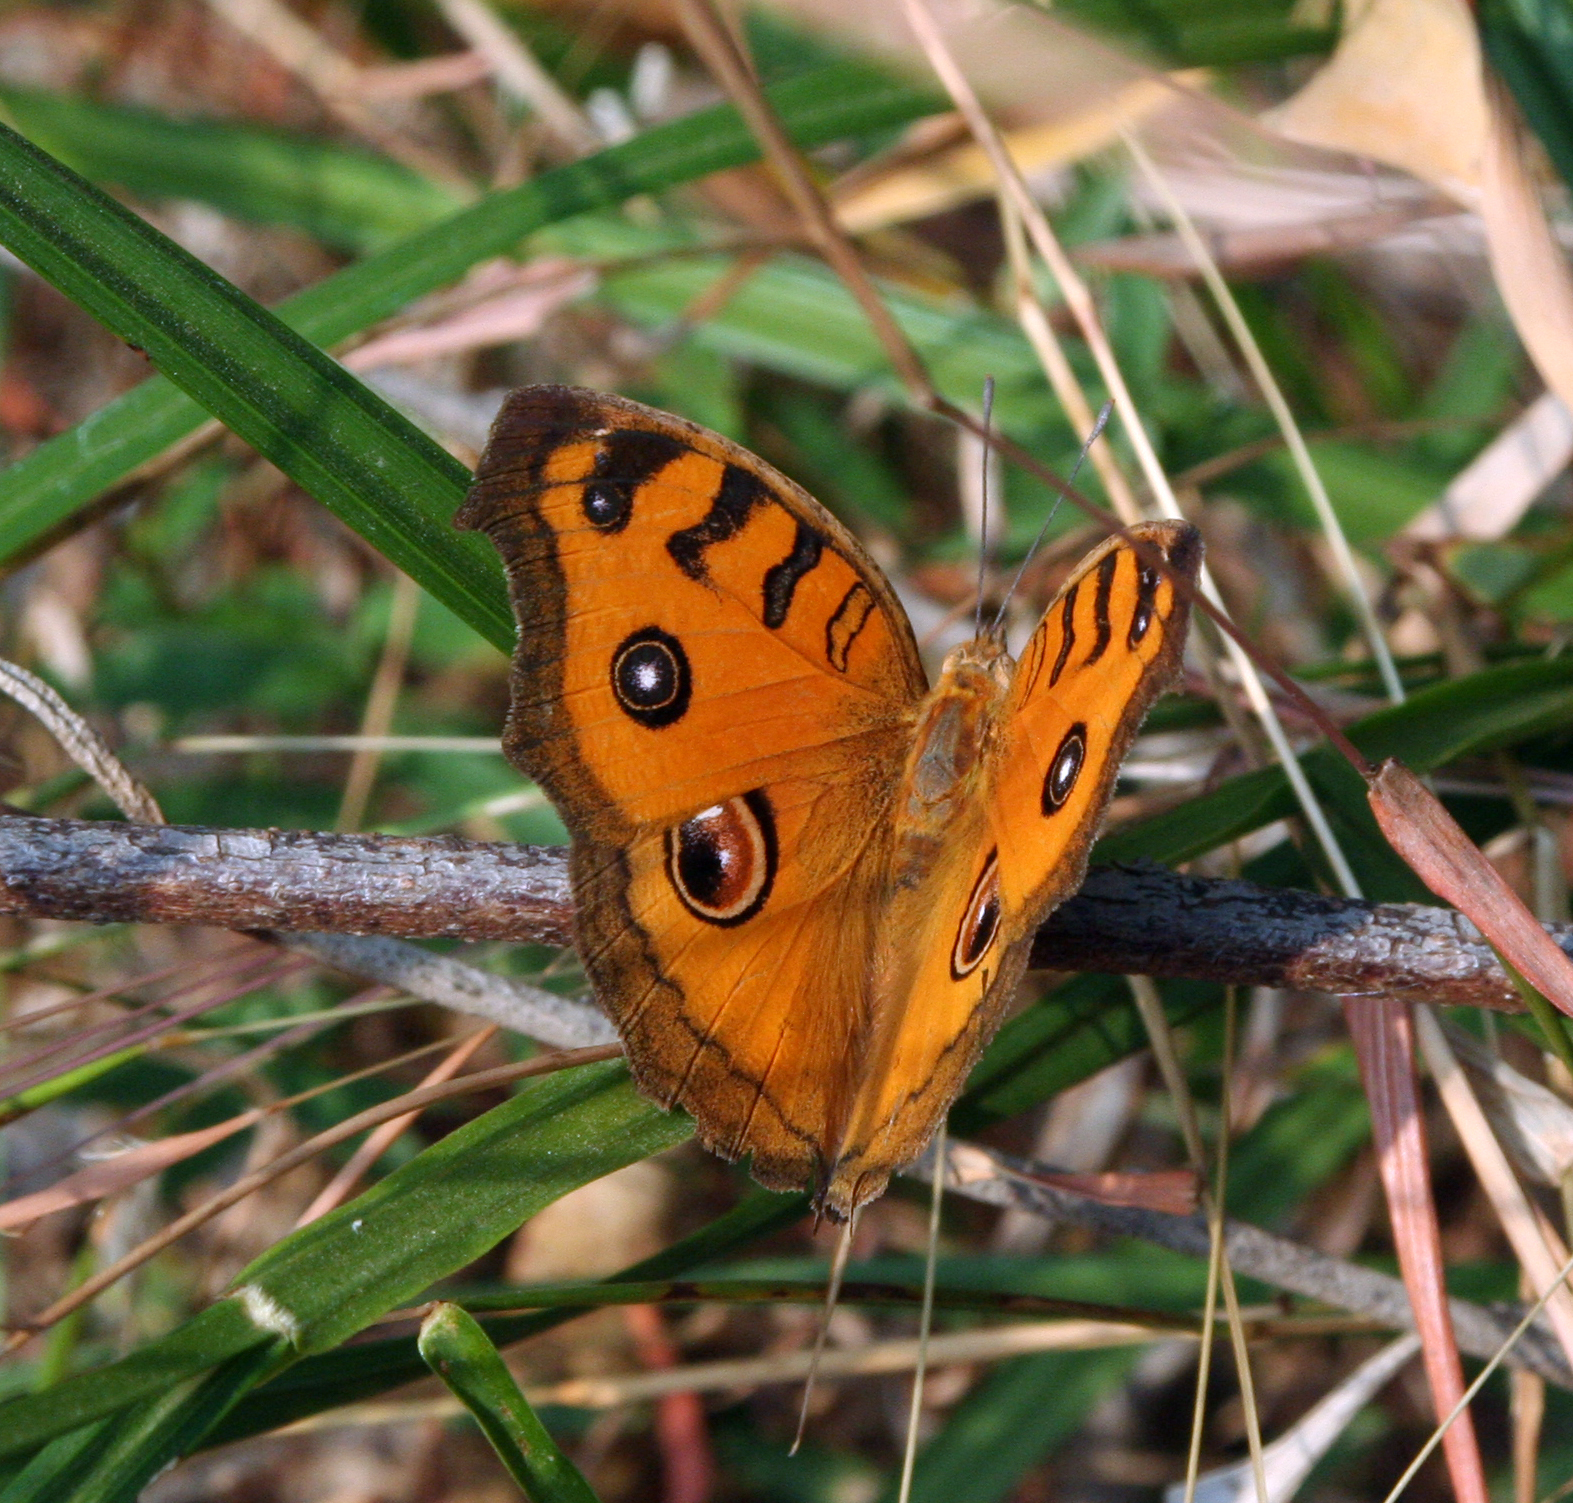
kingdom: Animalia
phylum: Arthropoda
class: Insecta
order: Lepidoptera
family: Nymphalidae
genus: Junonia
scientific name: Junonia almana
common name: Peacock pansy
